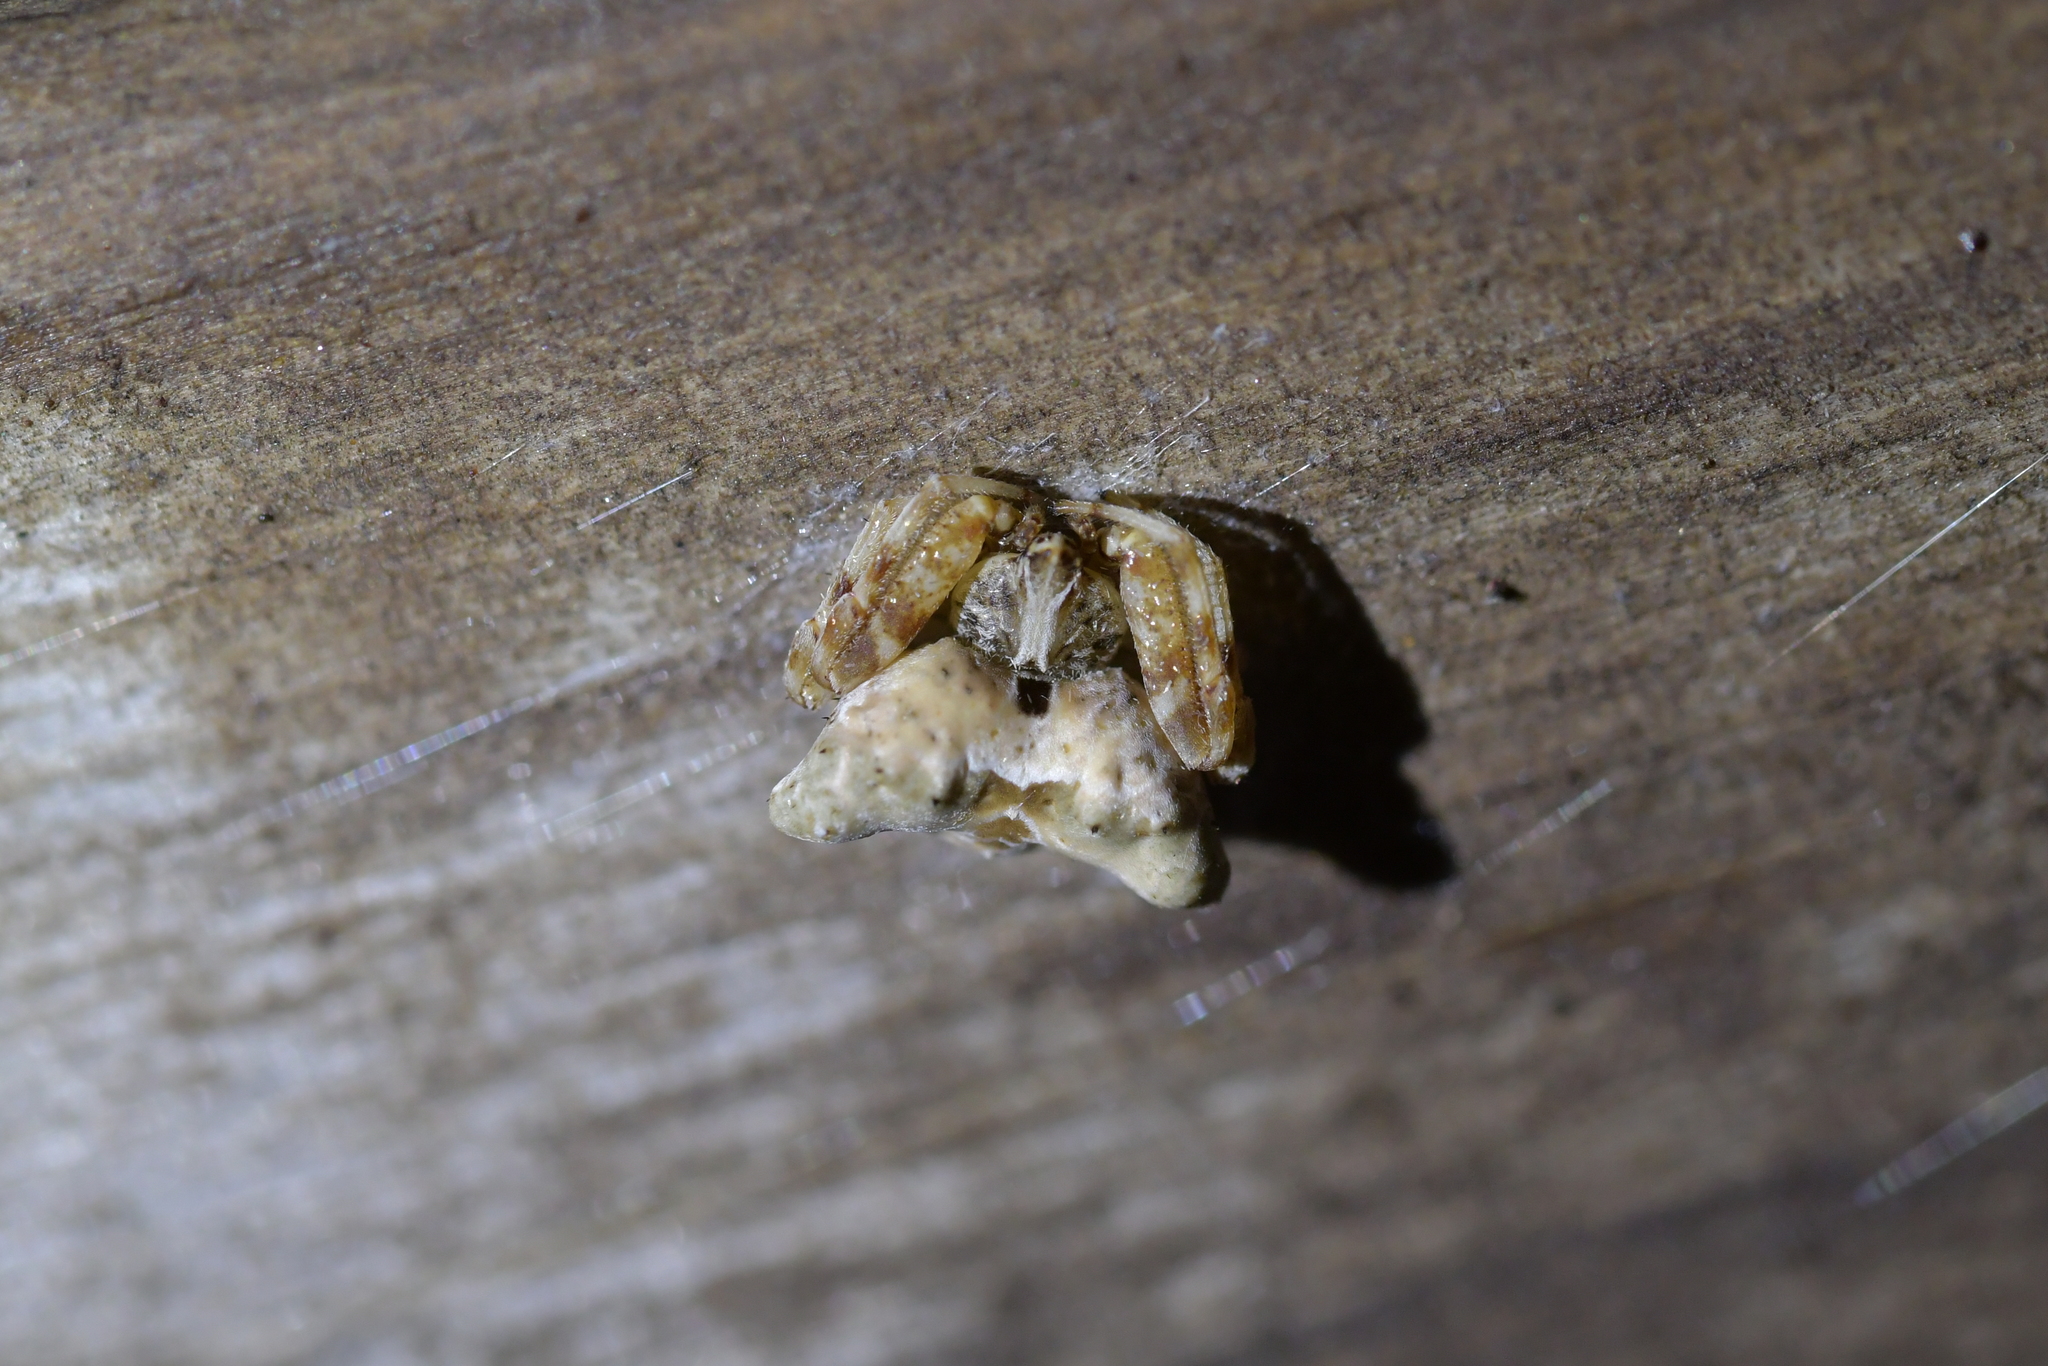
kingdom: Animalia
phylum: Arthropoda
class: Arachnida
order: Araneae
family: Araneidae
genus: Celaenia
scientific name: Celaenia olivacea
